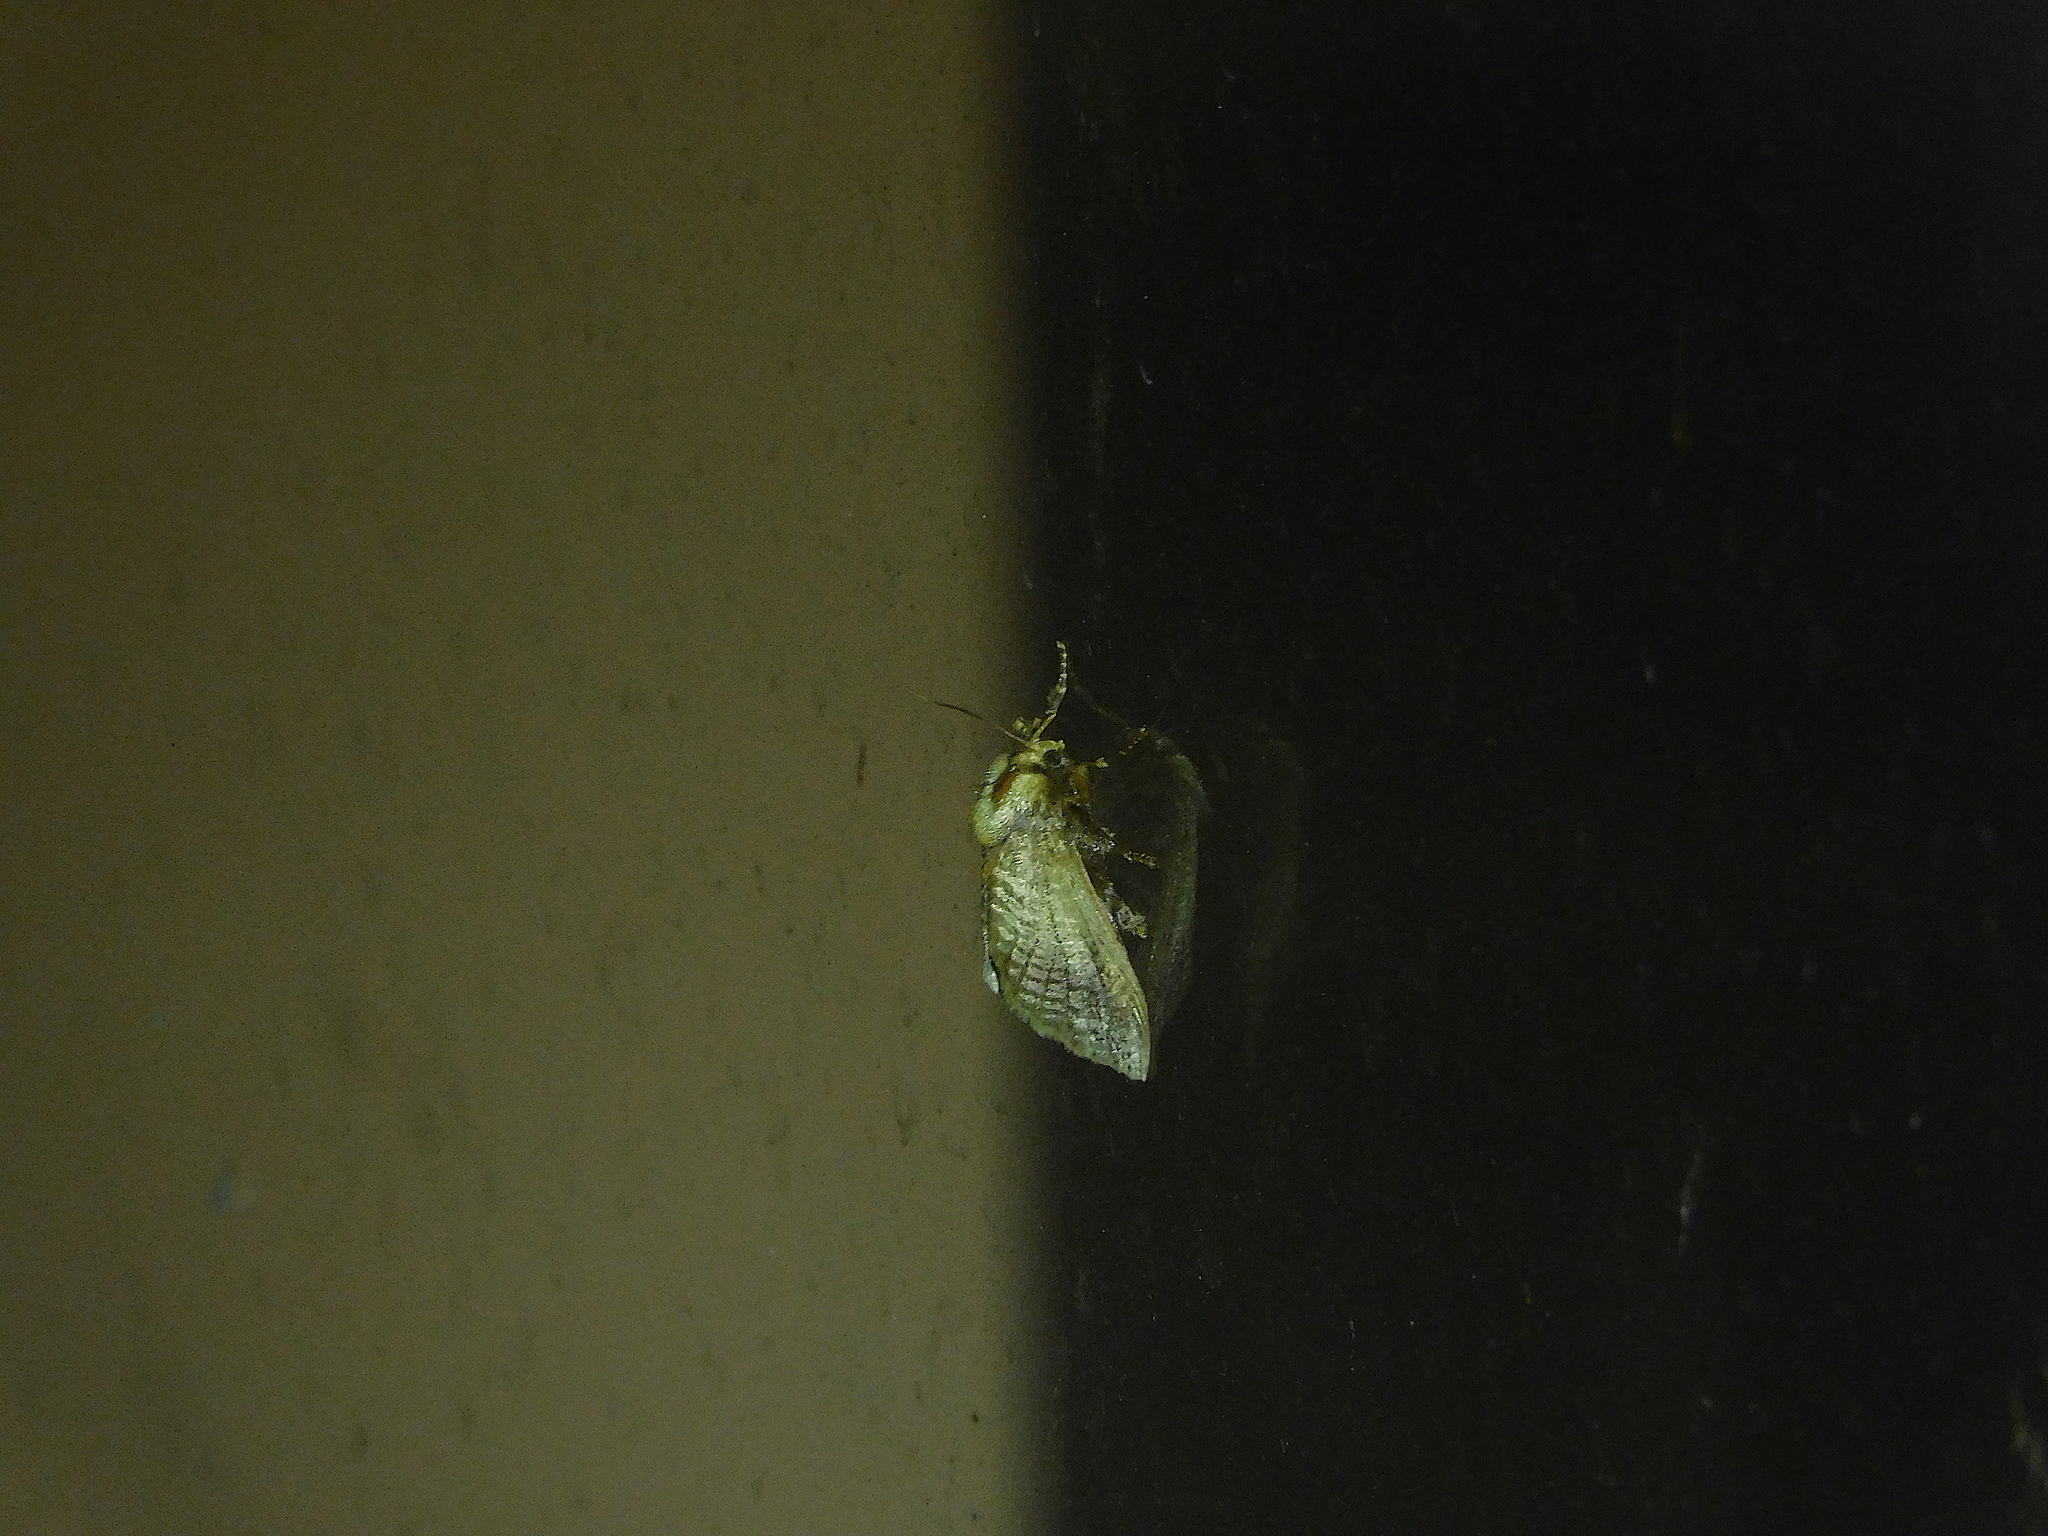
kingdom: Animalia
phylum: Arthropoda
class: Insecta
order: Lepidoptera
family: Limacodidae
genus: Doratifera
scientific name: Doratifera oxleyi
